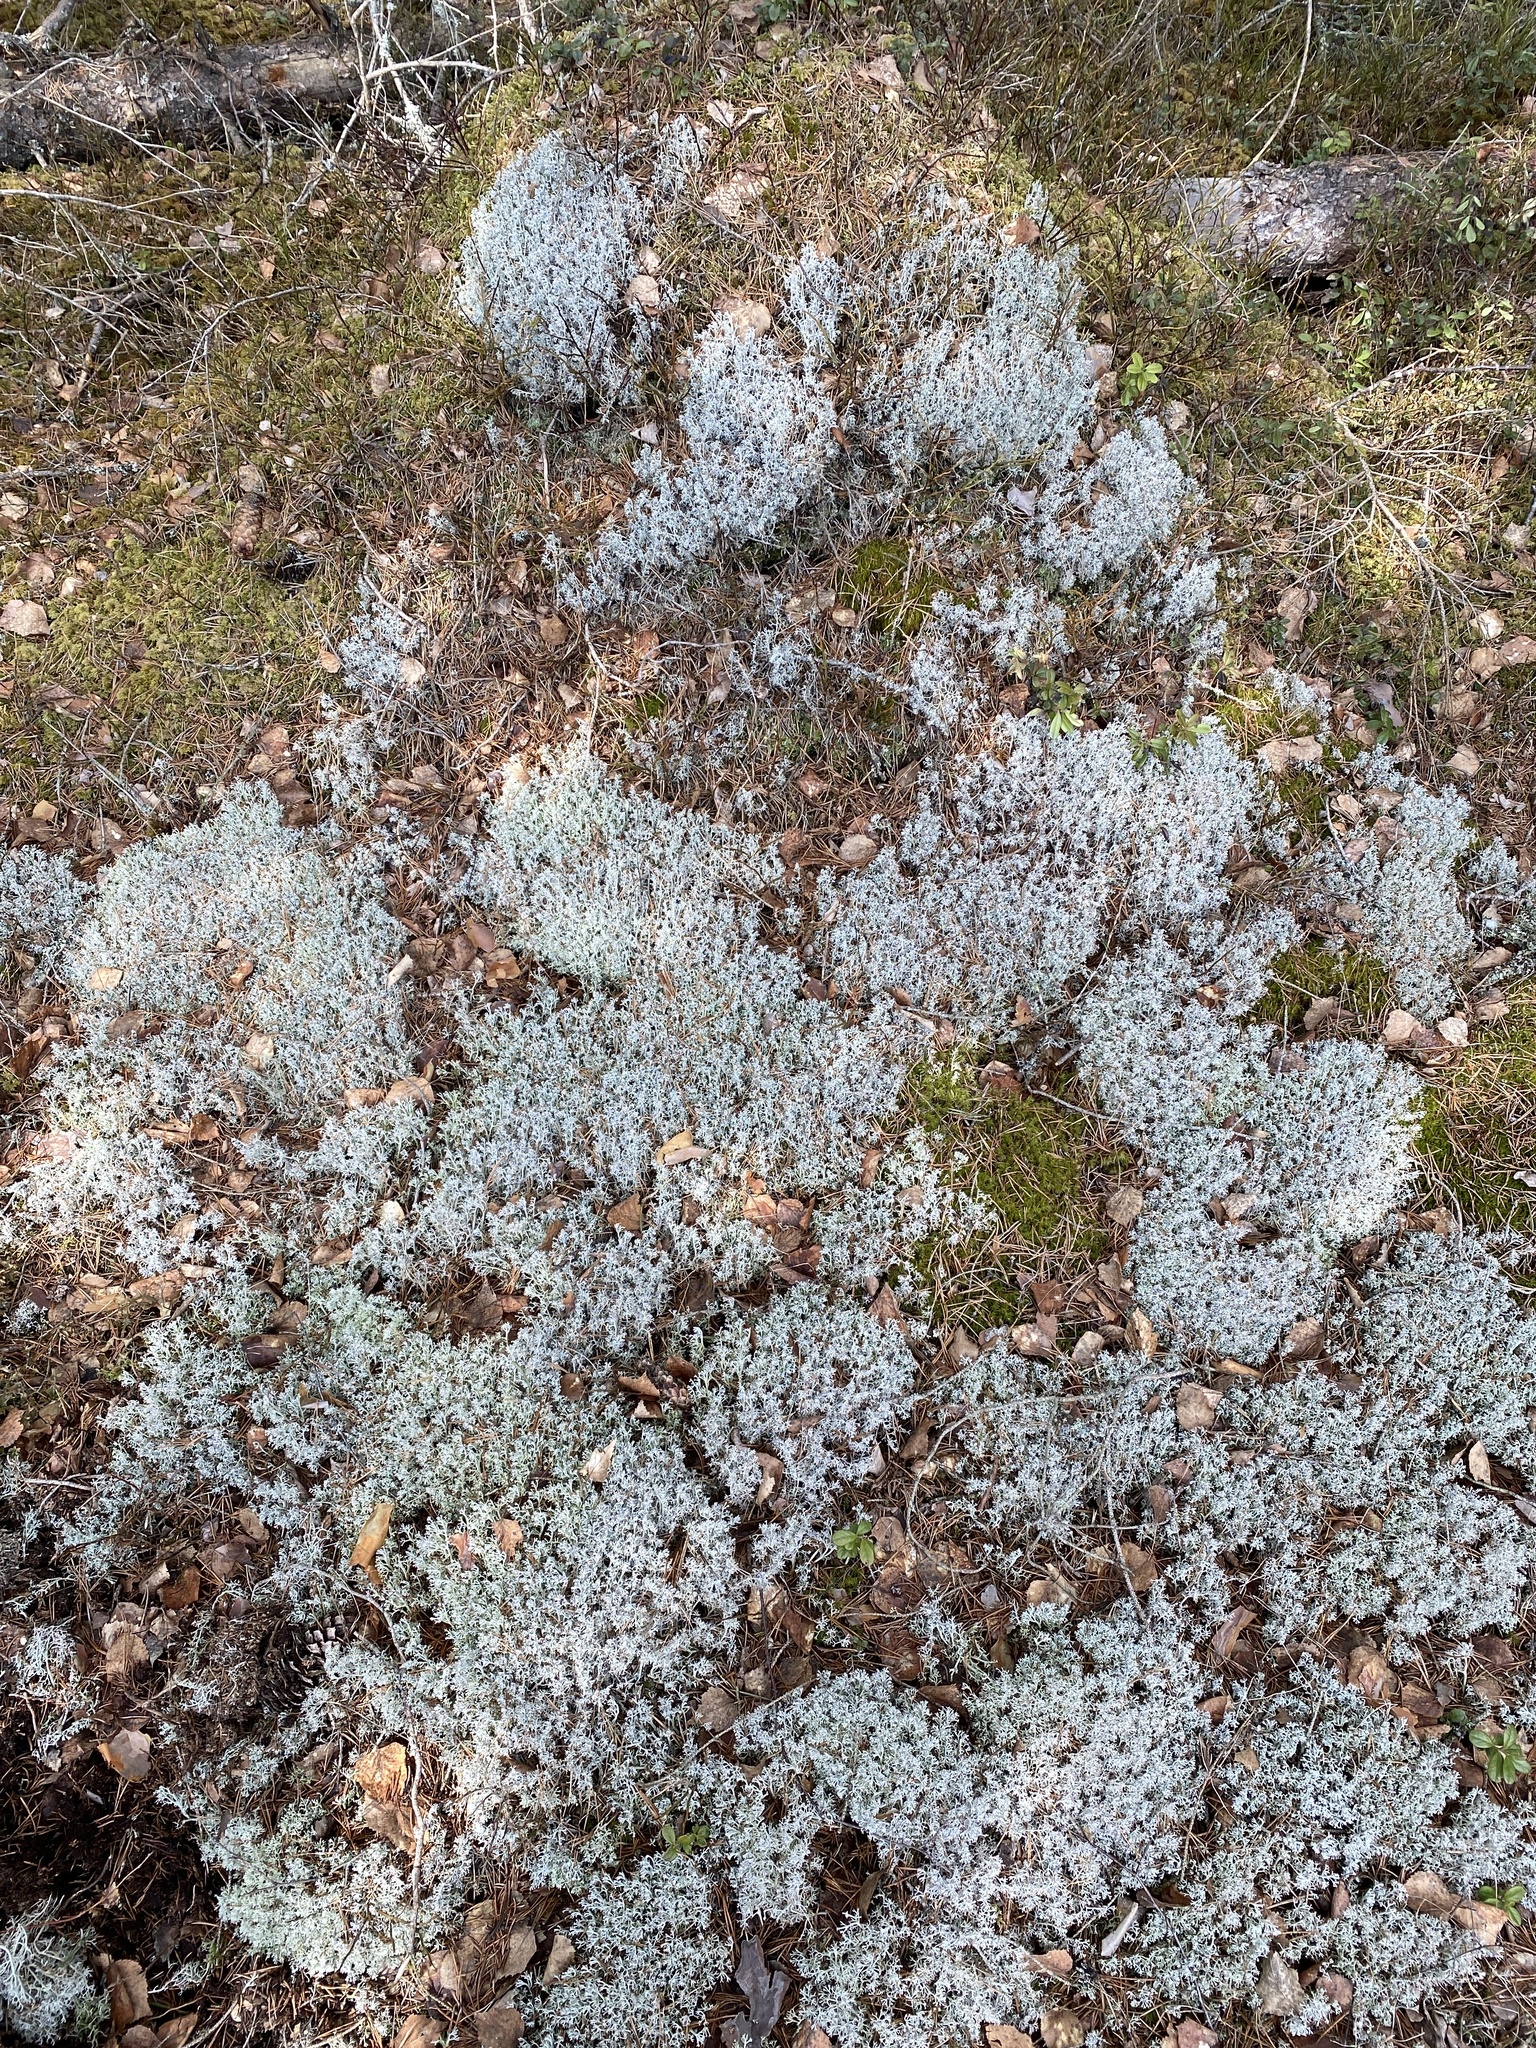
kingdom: Fungi
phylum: Ascomycota
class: Lecanoromycetes
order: Lecanorales
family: Cladoniaceae
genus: Cladonia
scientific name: Cladonia rangiferina
